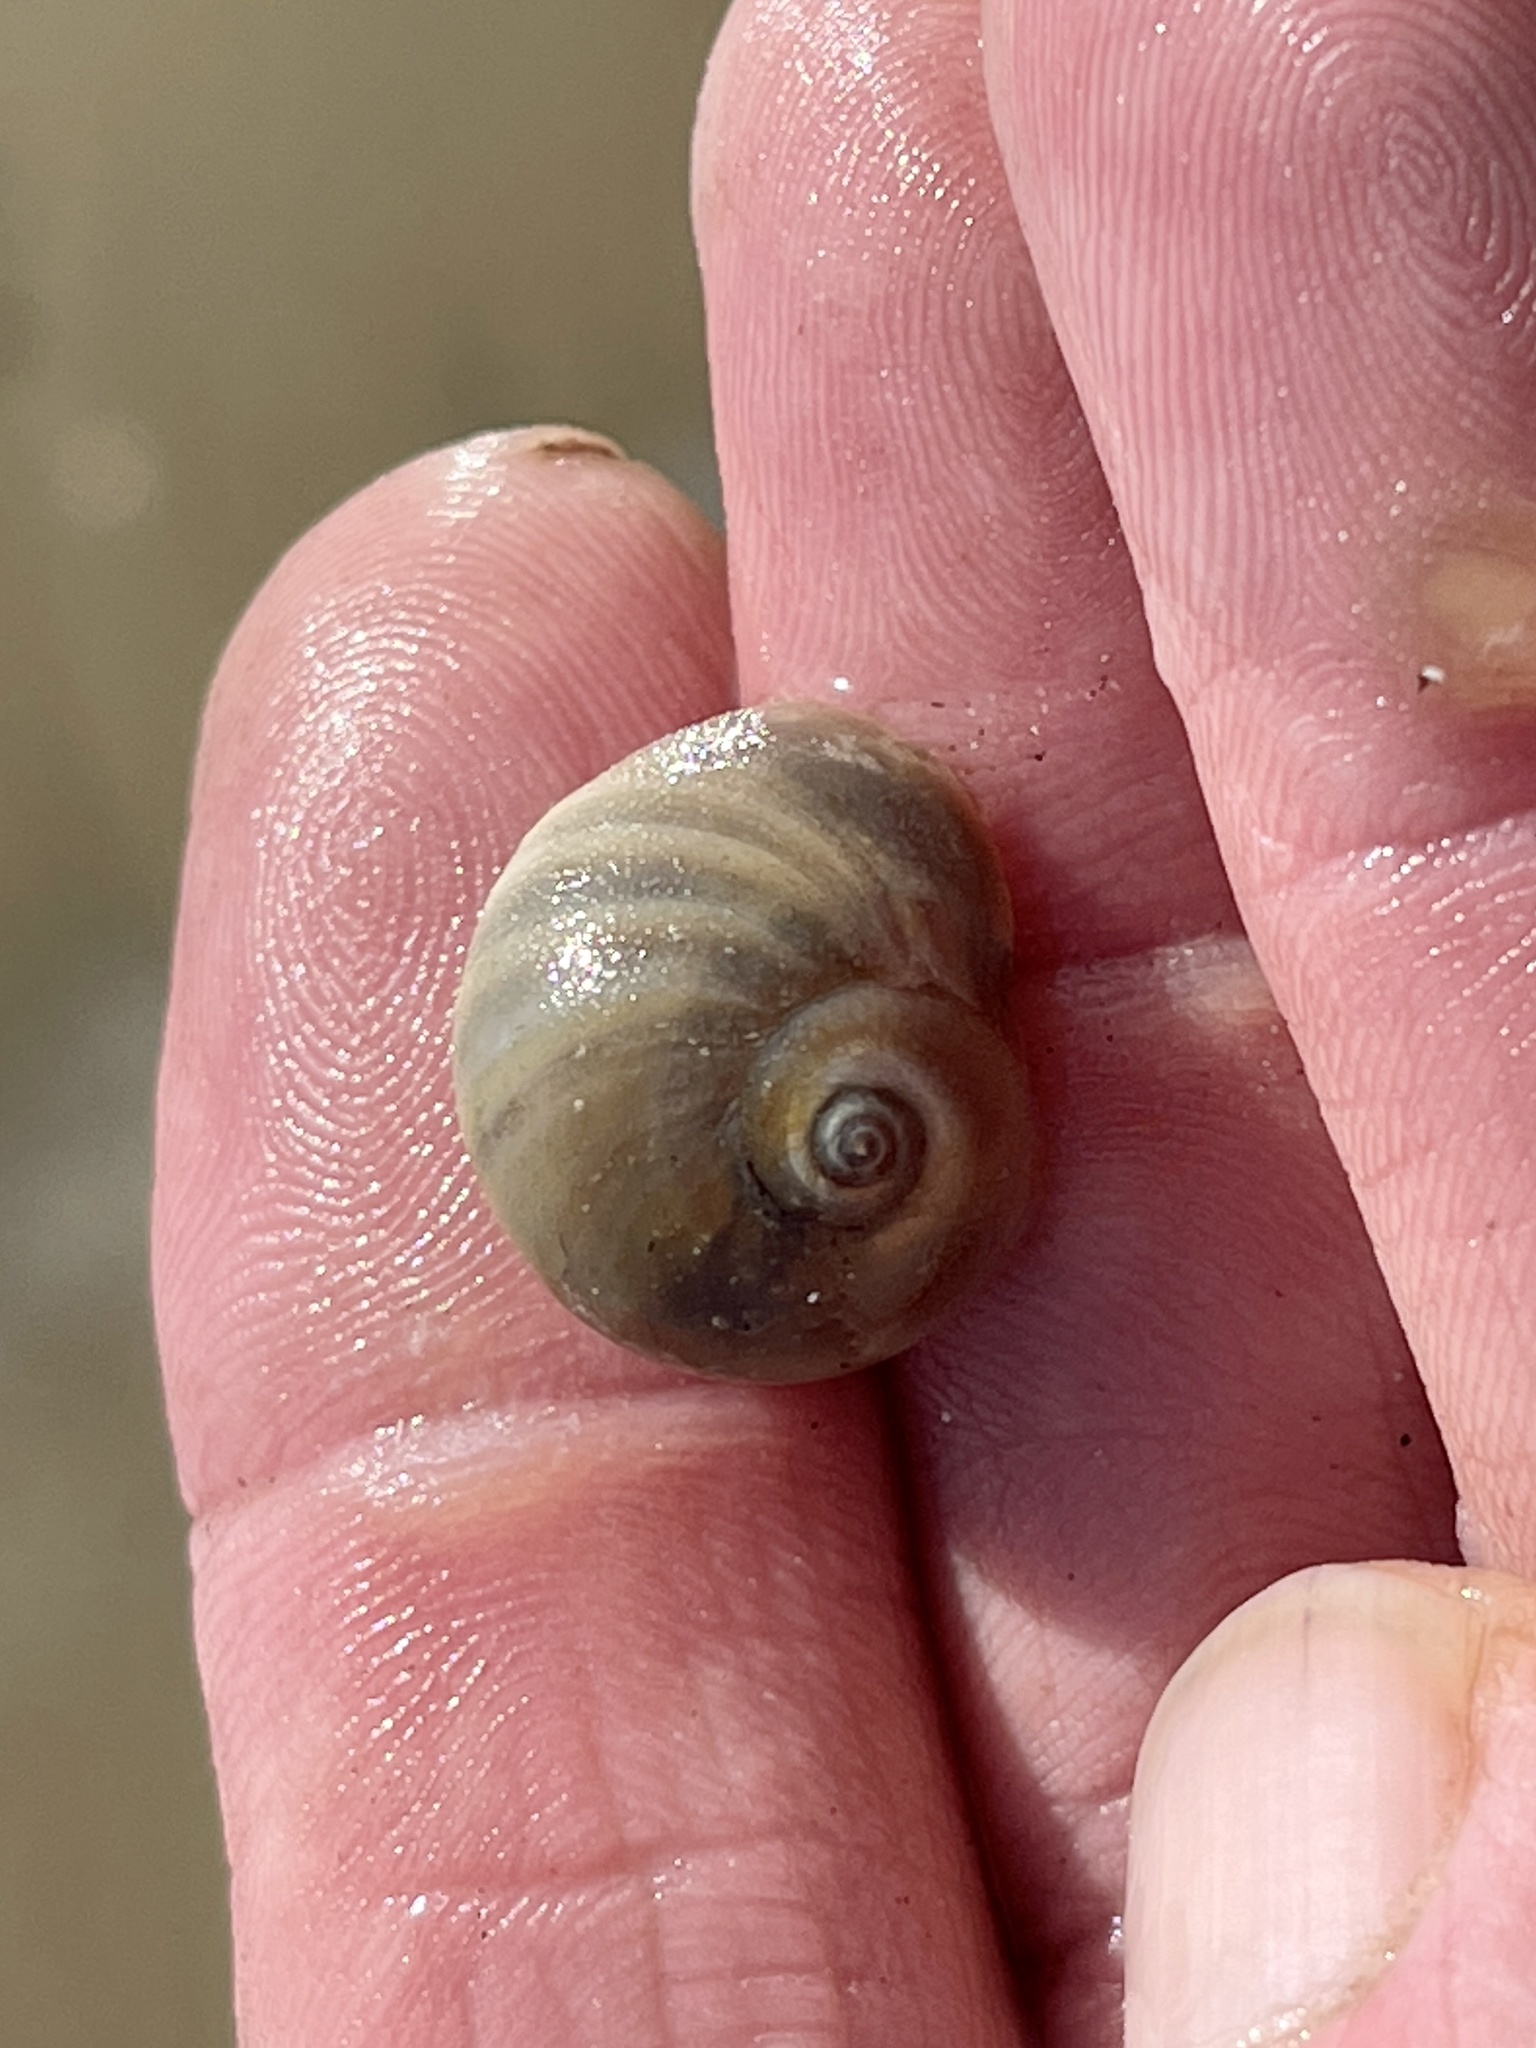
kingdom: Animalia
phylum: Mollusca
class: Gastropoda
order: Littorinimorpha
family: Naticidae
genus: Neverita
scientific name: Neverita duplicata
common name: Lobed moonsnail
